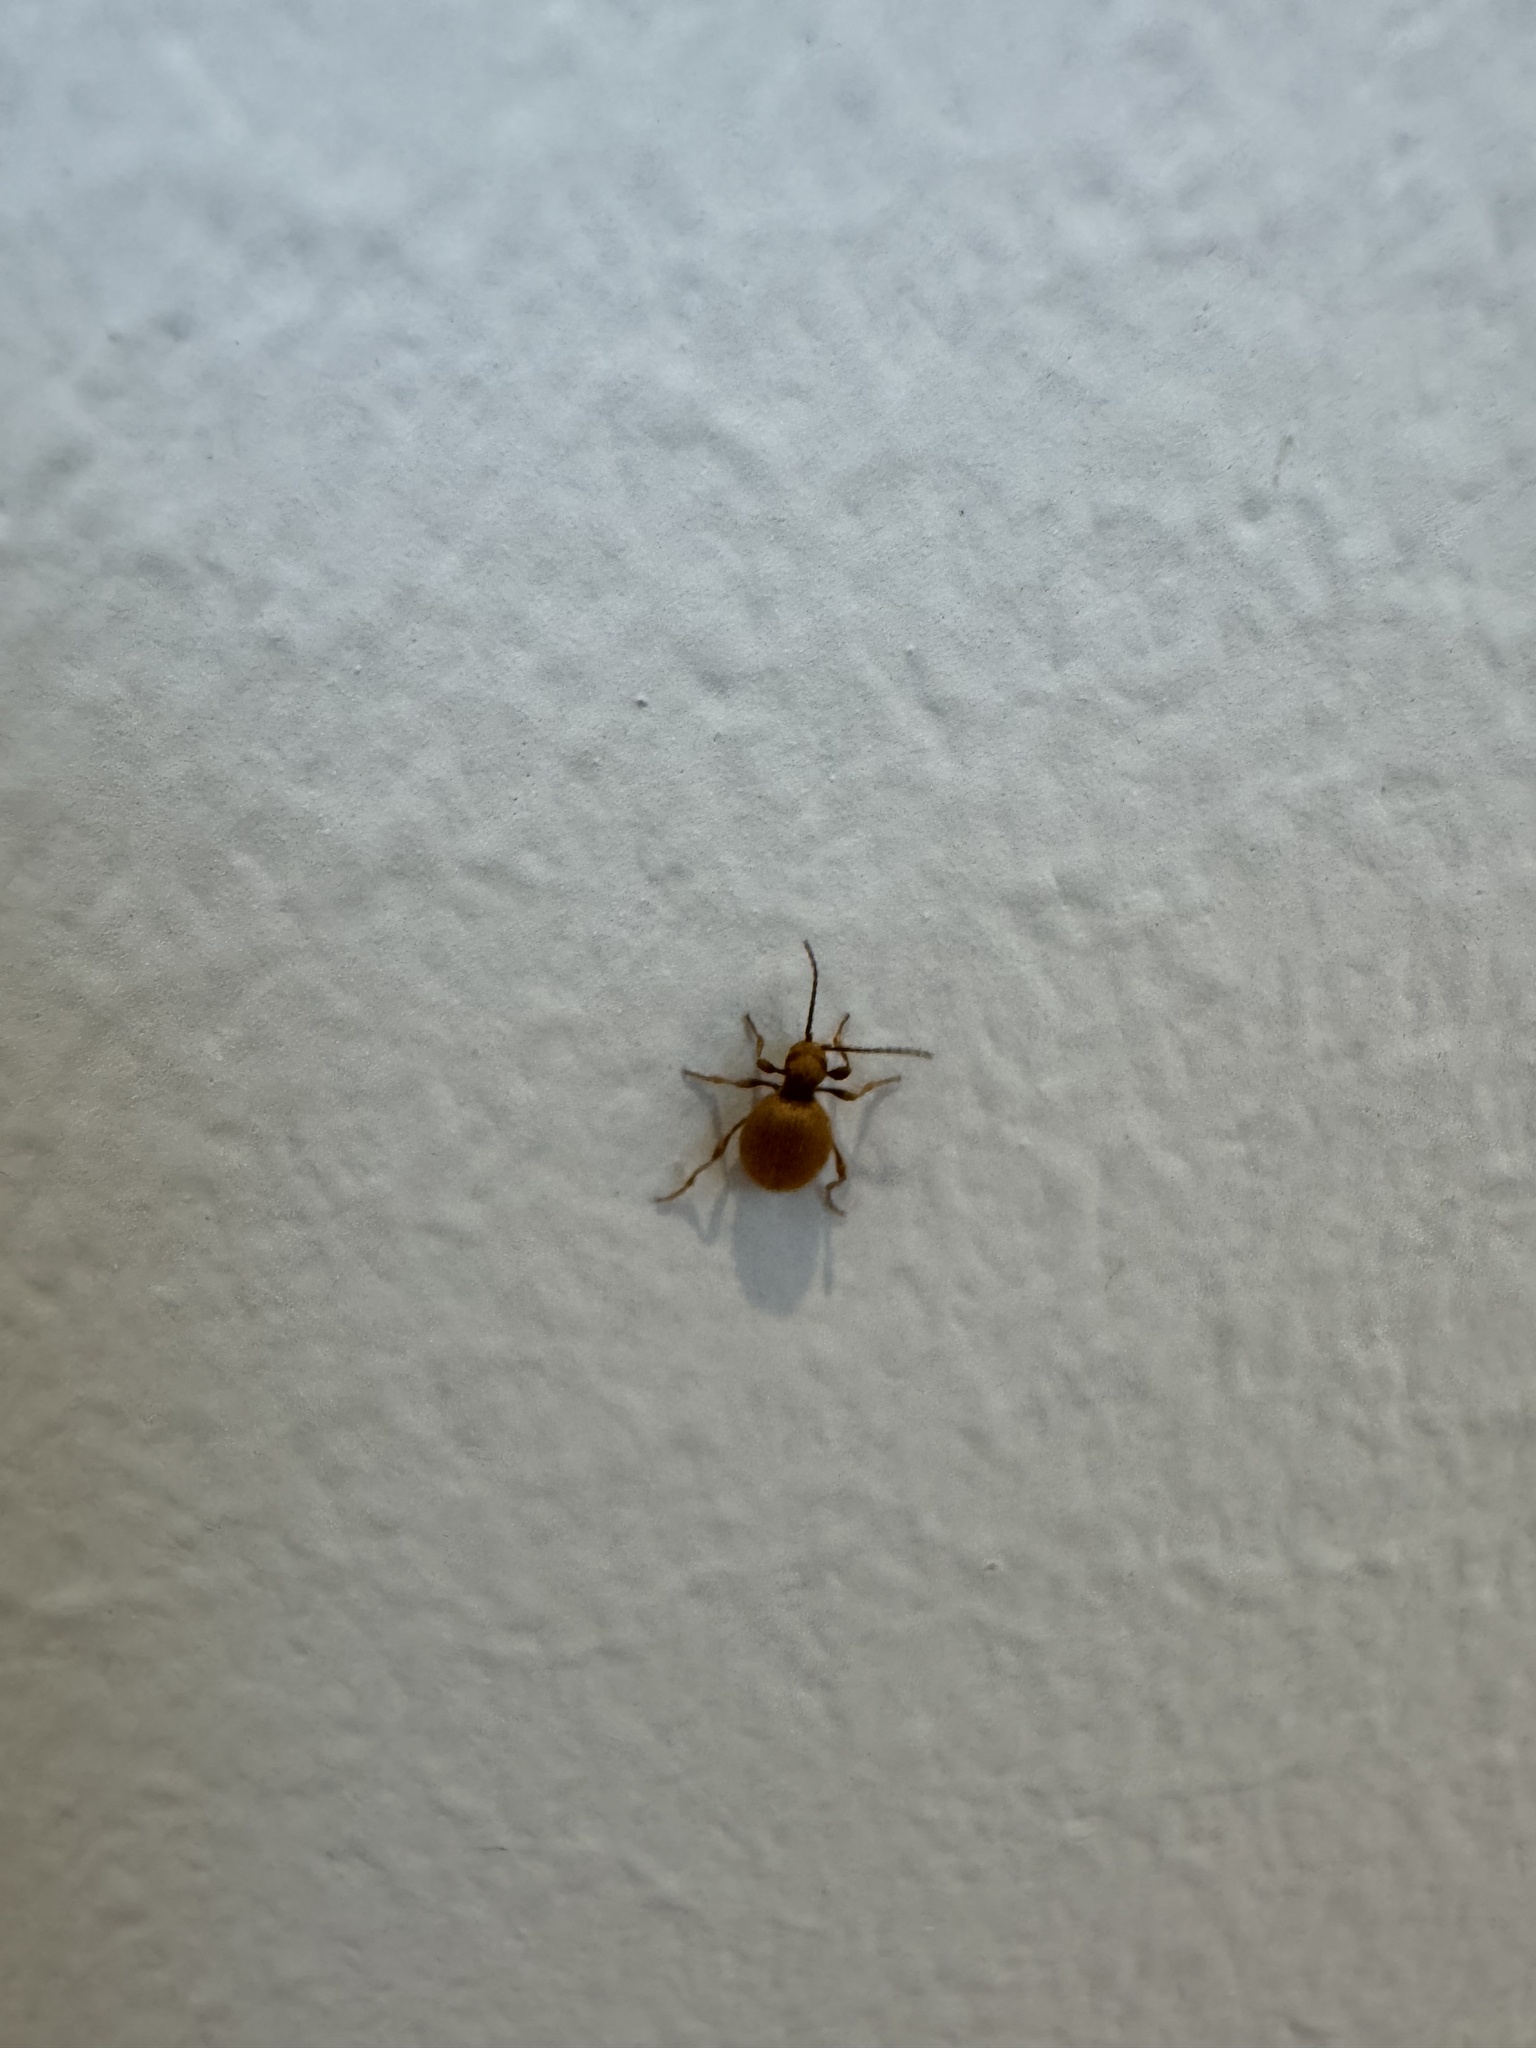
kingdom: Animalia
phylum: Arthropoda
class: Insecta
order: Coleoptera
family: Ptinidae
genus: Niptus
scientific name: Niptus hololeucus
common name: Golden spider beetle
